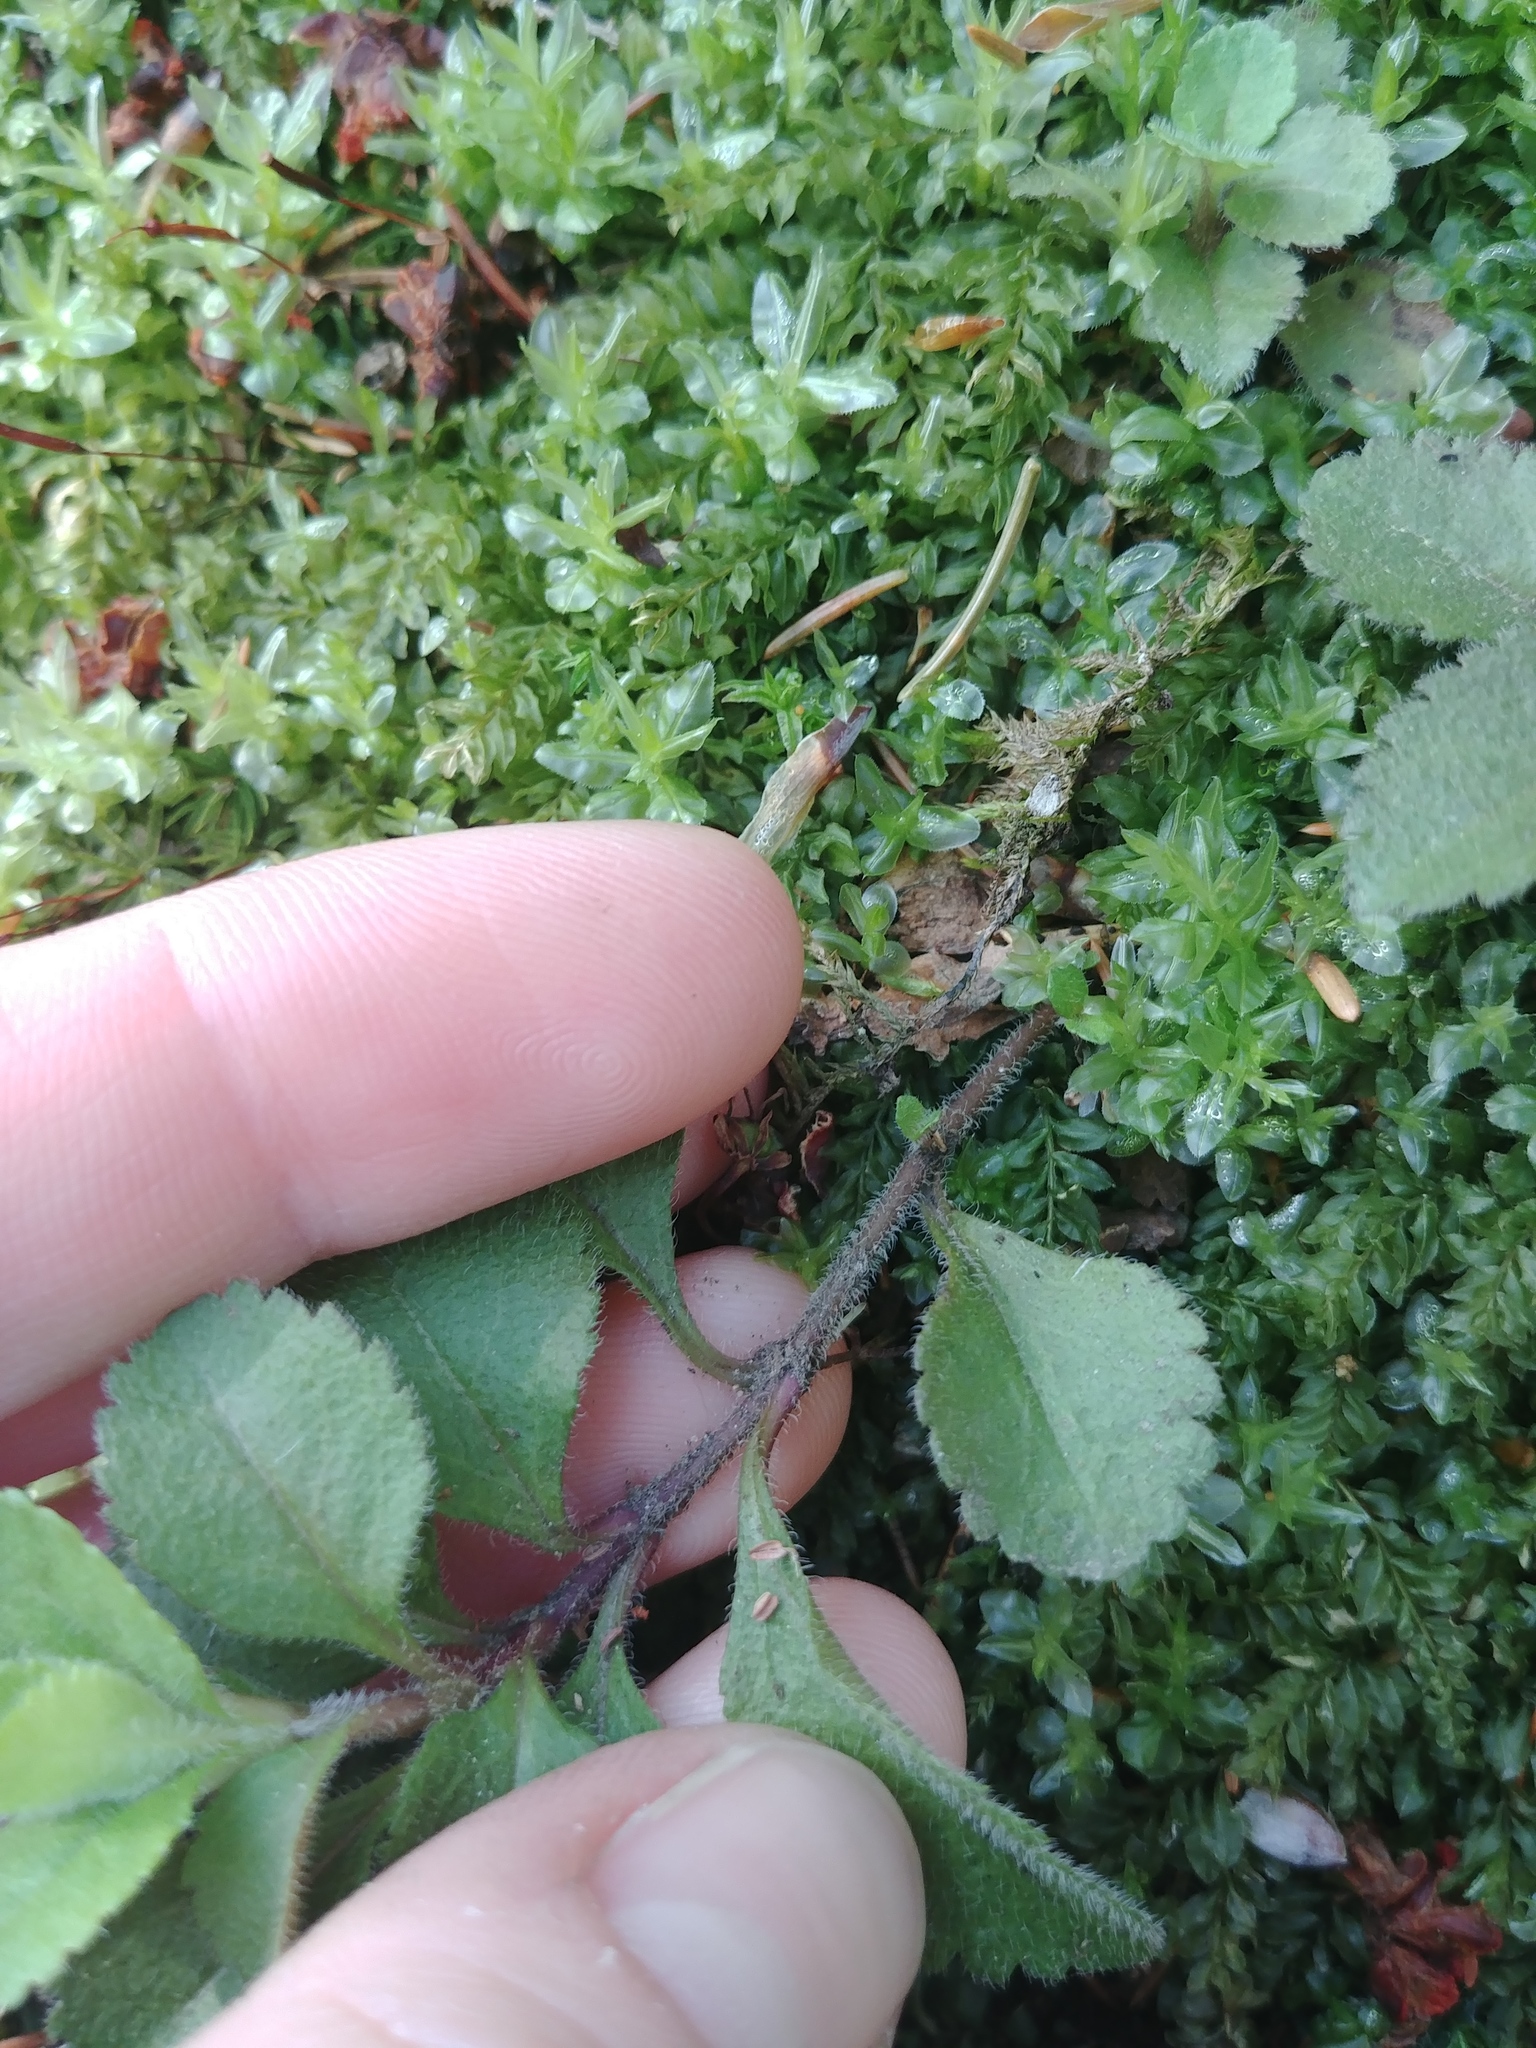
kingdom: Plantae
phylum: Tracheophyta
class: Magnoliopsida
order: Lamiales
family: Plantaginaceae
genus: Veronica
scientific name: Veronica officinalis
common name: Common speedwell
